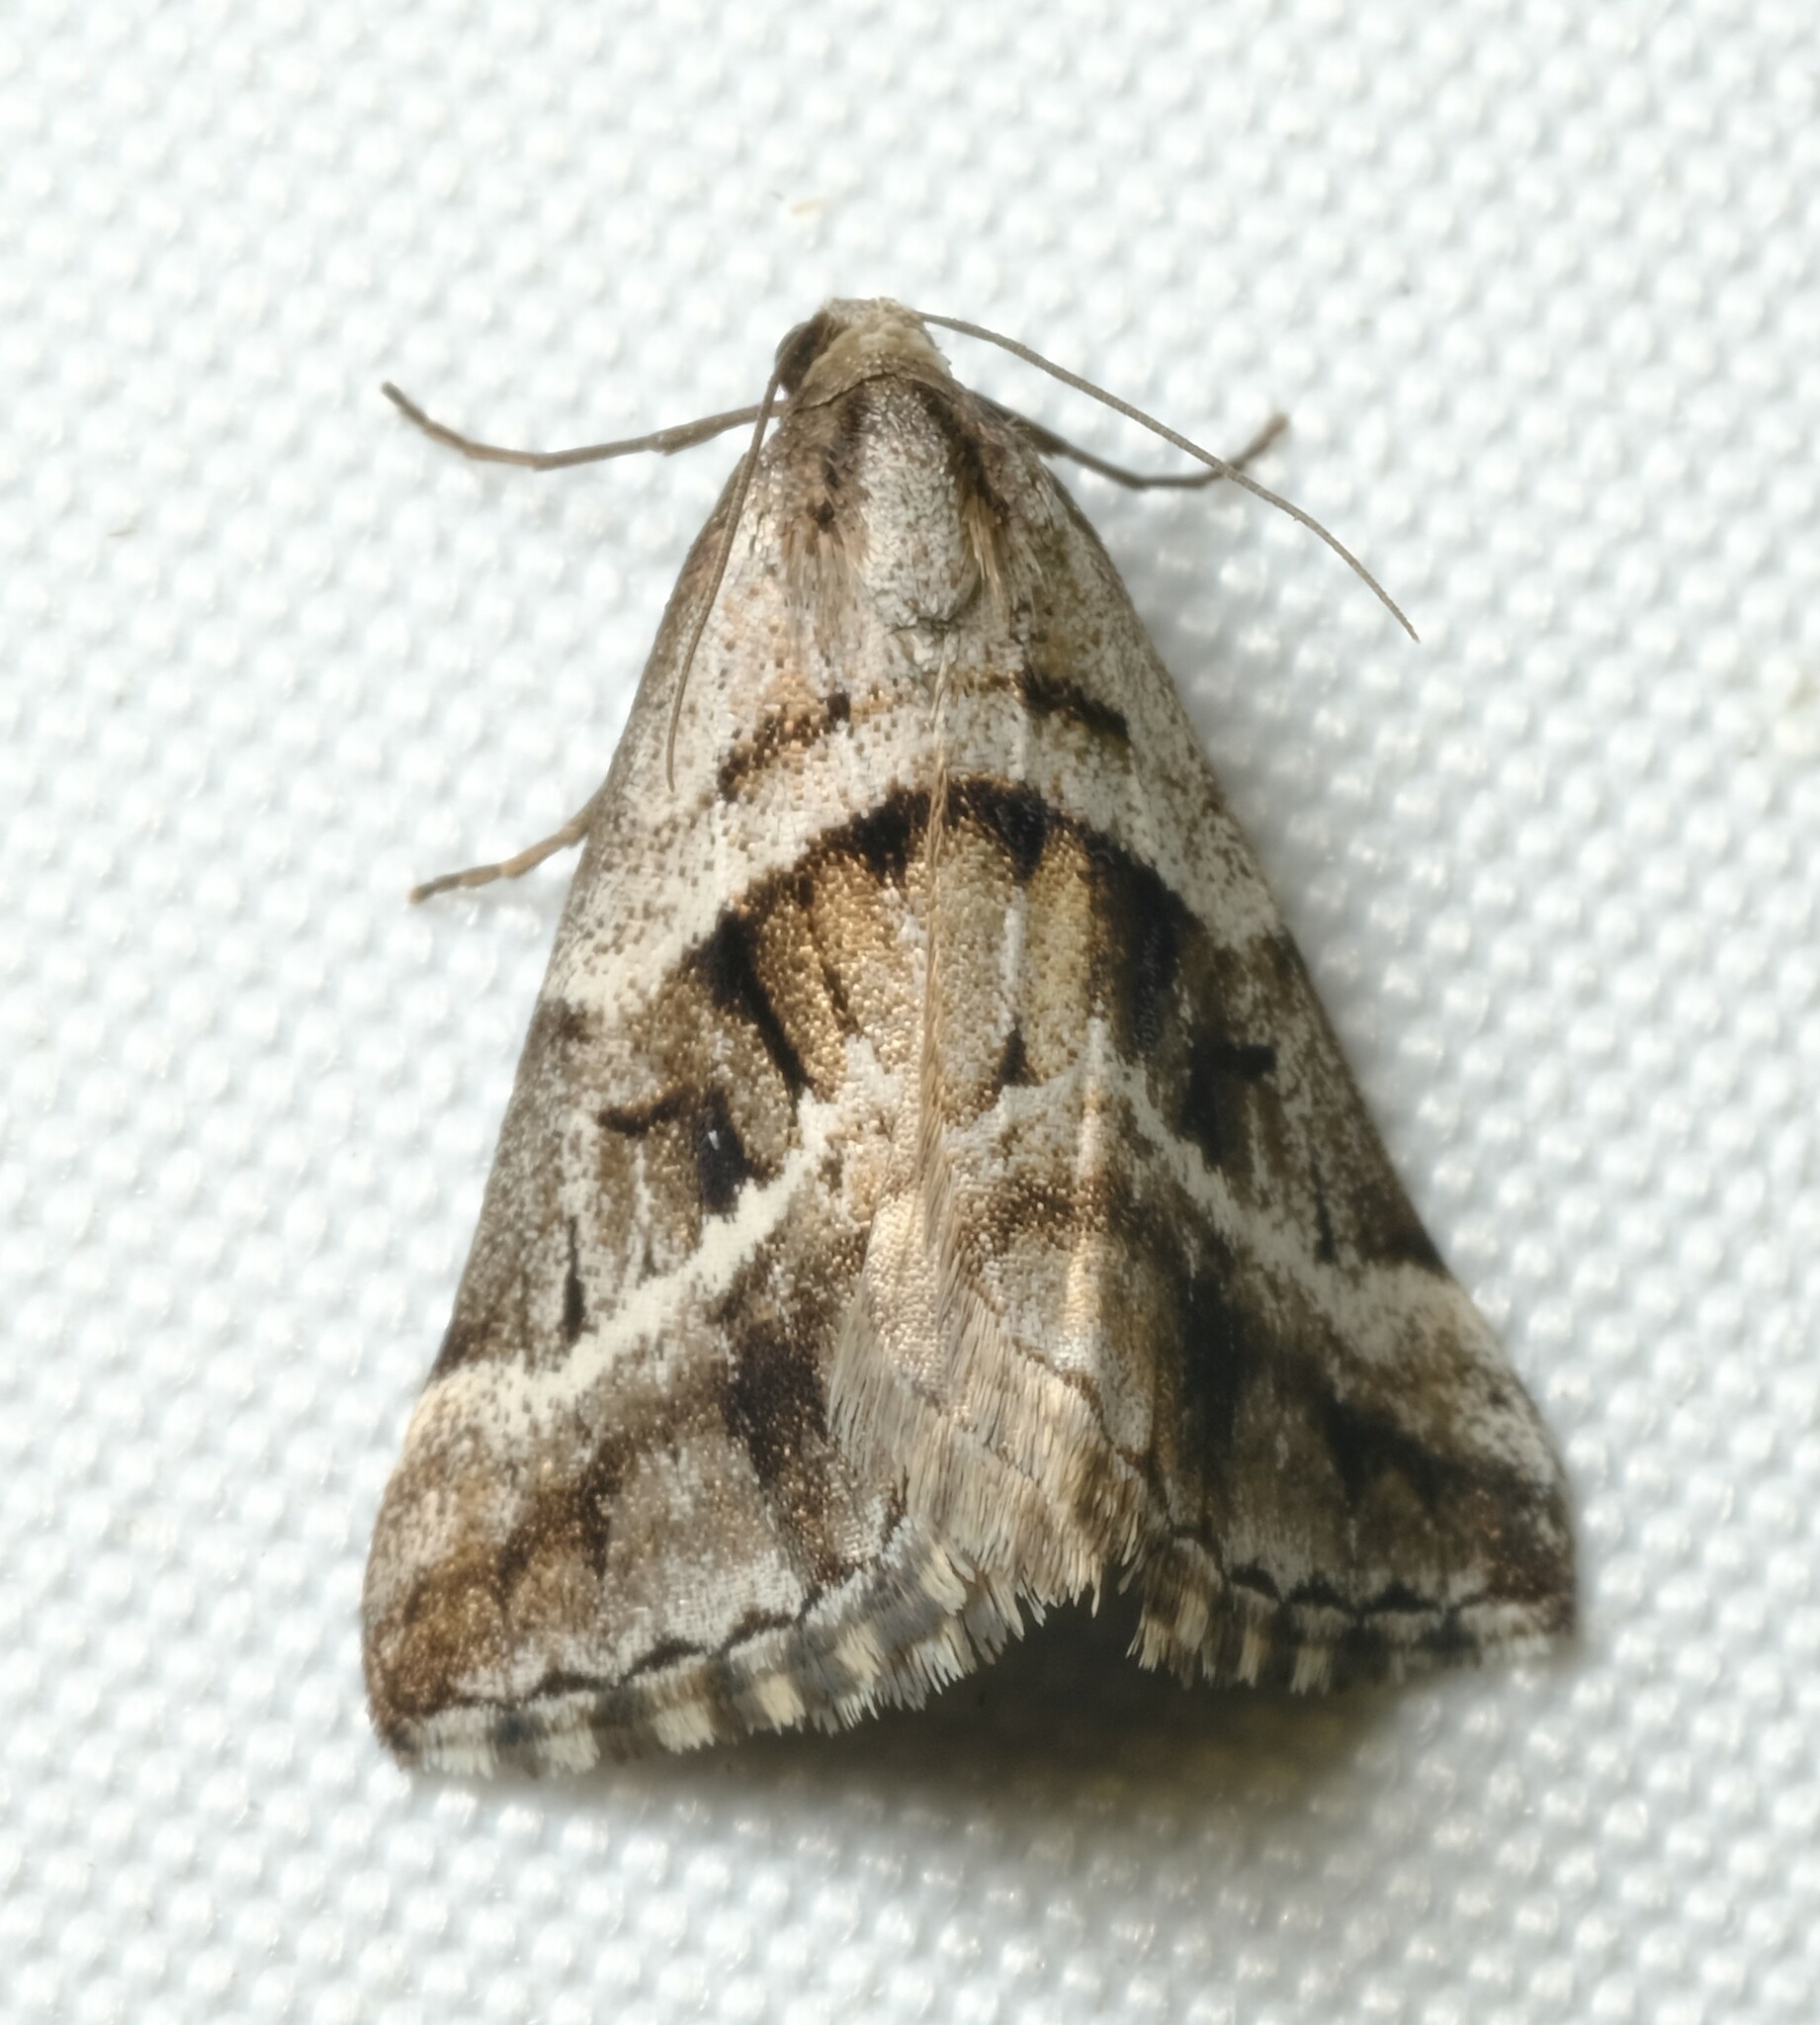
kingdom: Animalia
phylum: Arthropoda
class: Insecta
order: Lepidoptera
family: Geometridae
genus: Dichromodes
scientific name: Dichromodes stilbiata
